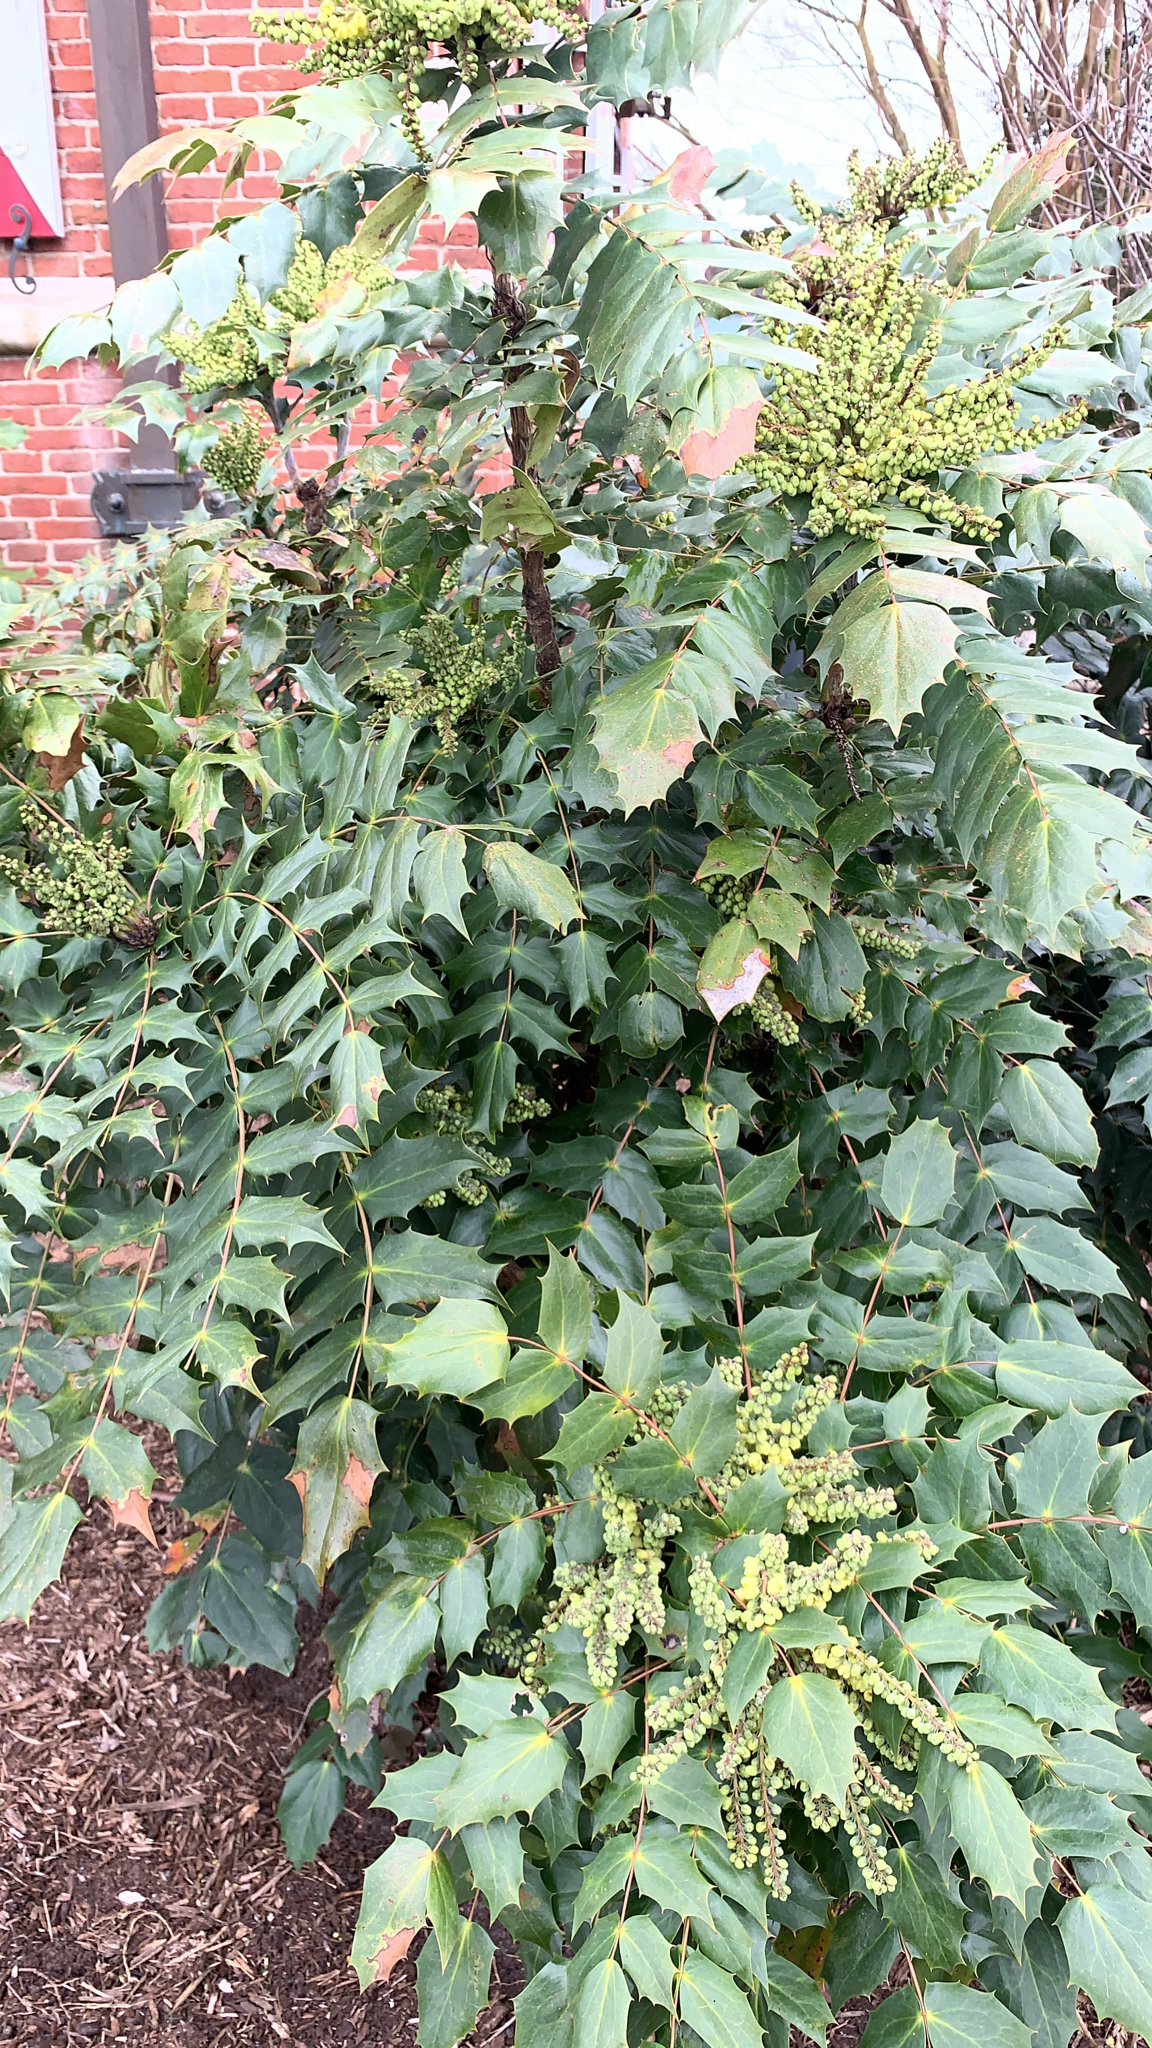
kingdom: Plantae
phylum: Tracheophyta
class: Magnoliopsida
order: Ranunculales
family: Berberidaceae
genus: Mahonia
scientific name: Mahonia bealei
